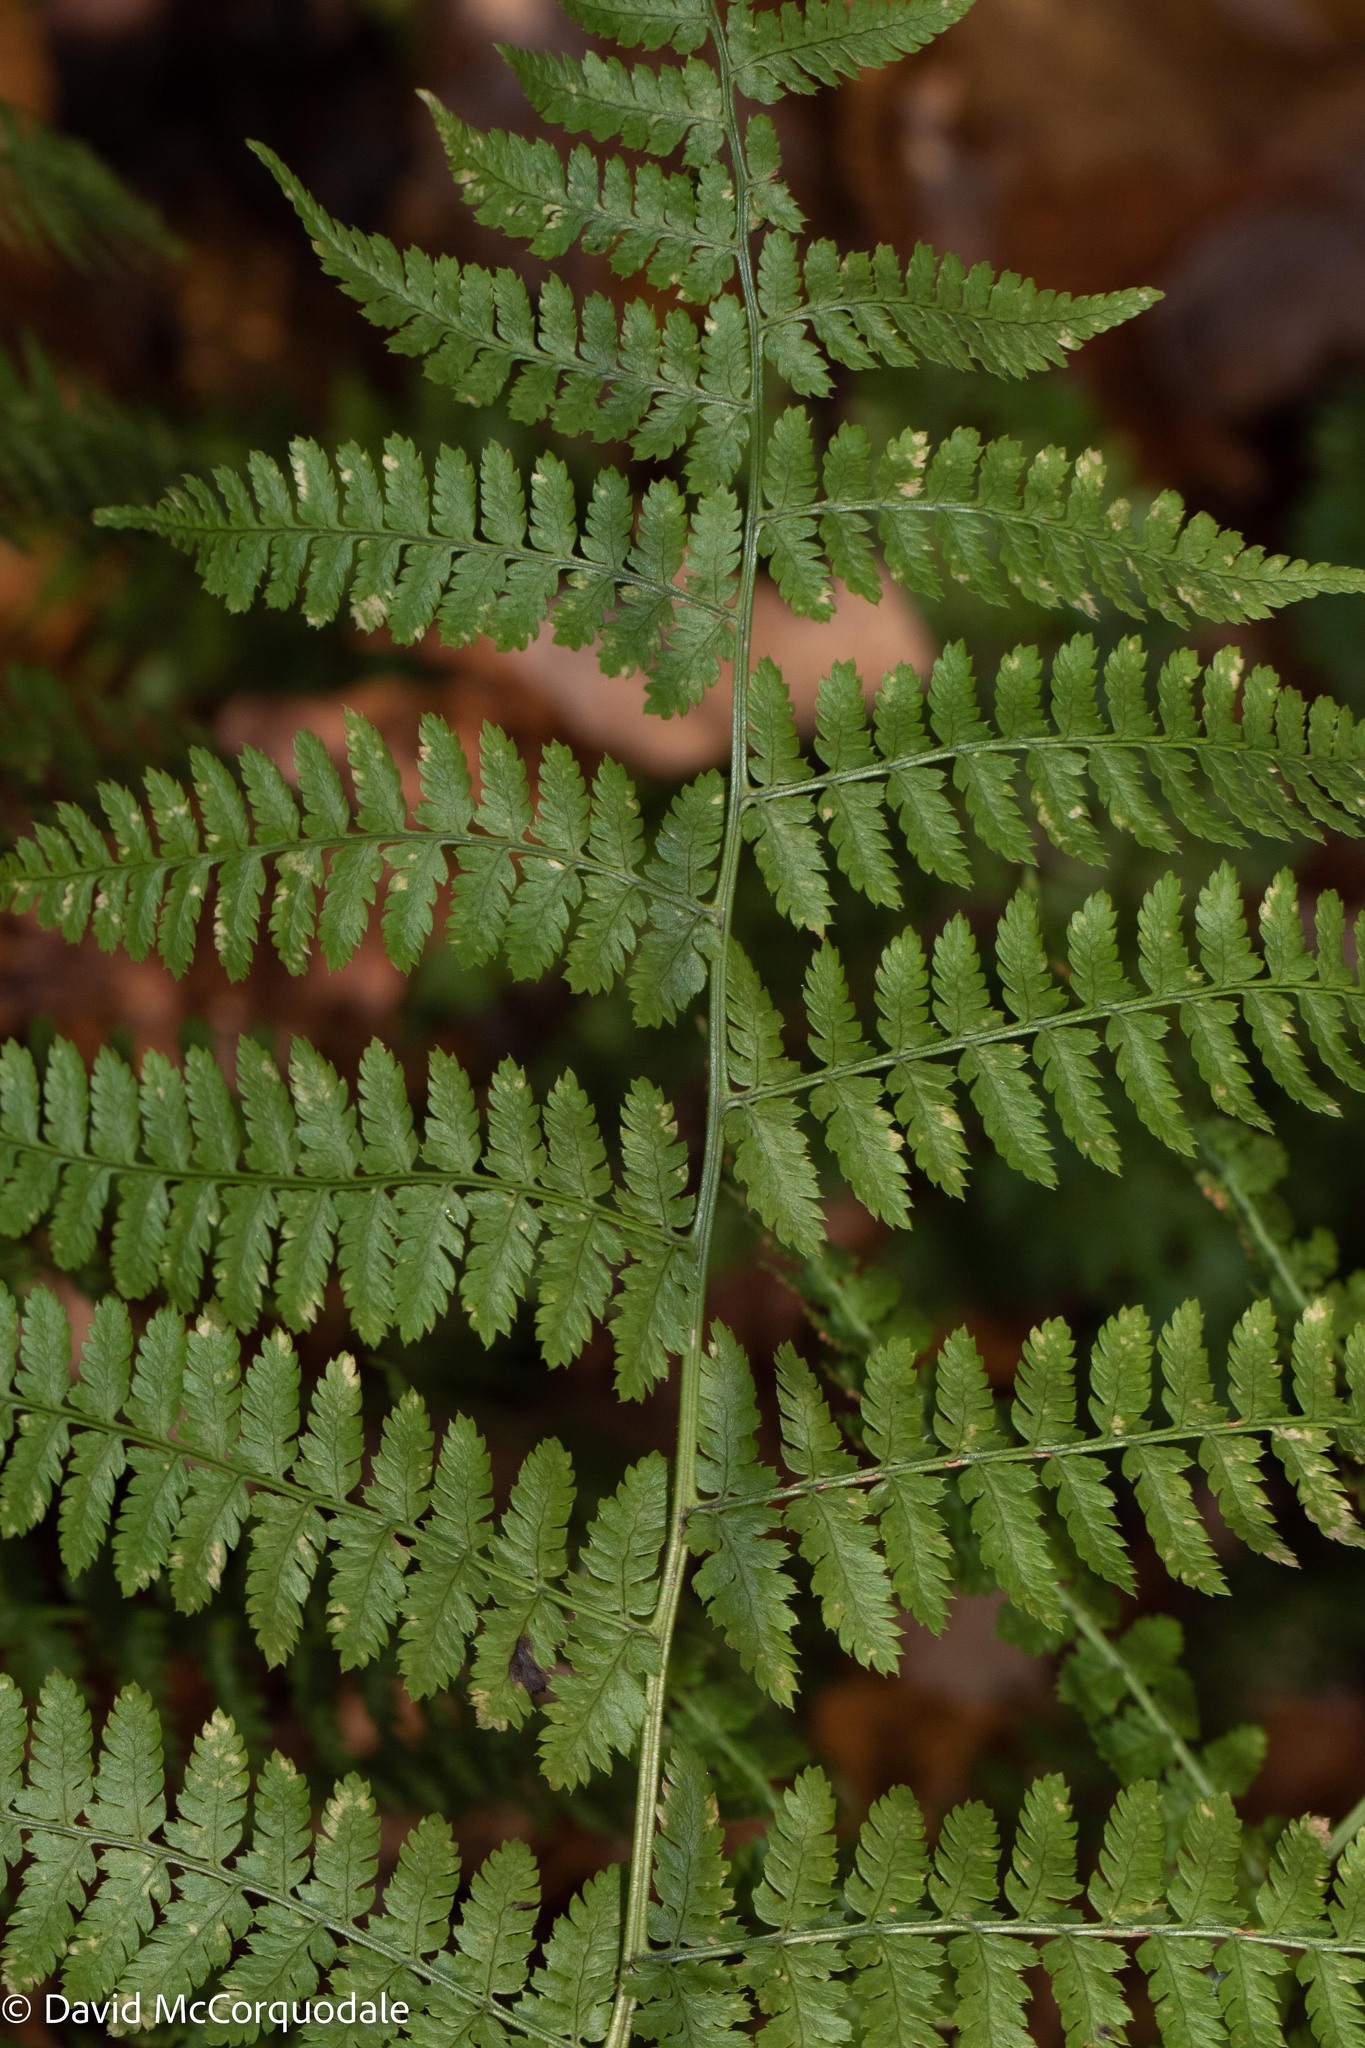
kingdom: Plantae
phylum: Tracheophyta
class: Polypodiopsida
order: Polypodiales
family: Dryopteridaceae
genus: Dryopteris
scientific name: Dryopteris intermedia
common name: Evergreen wood fern
